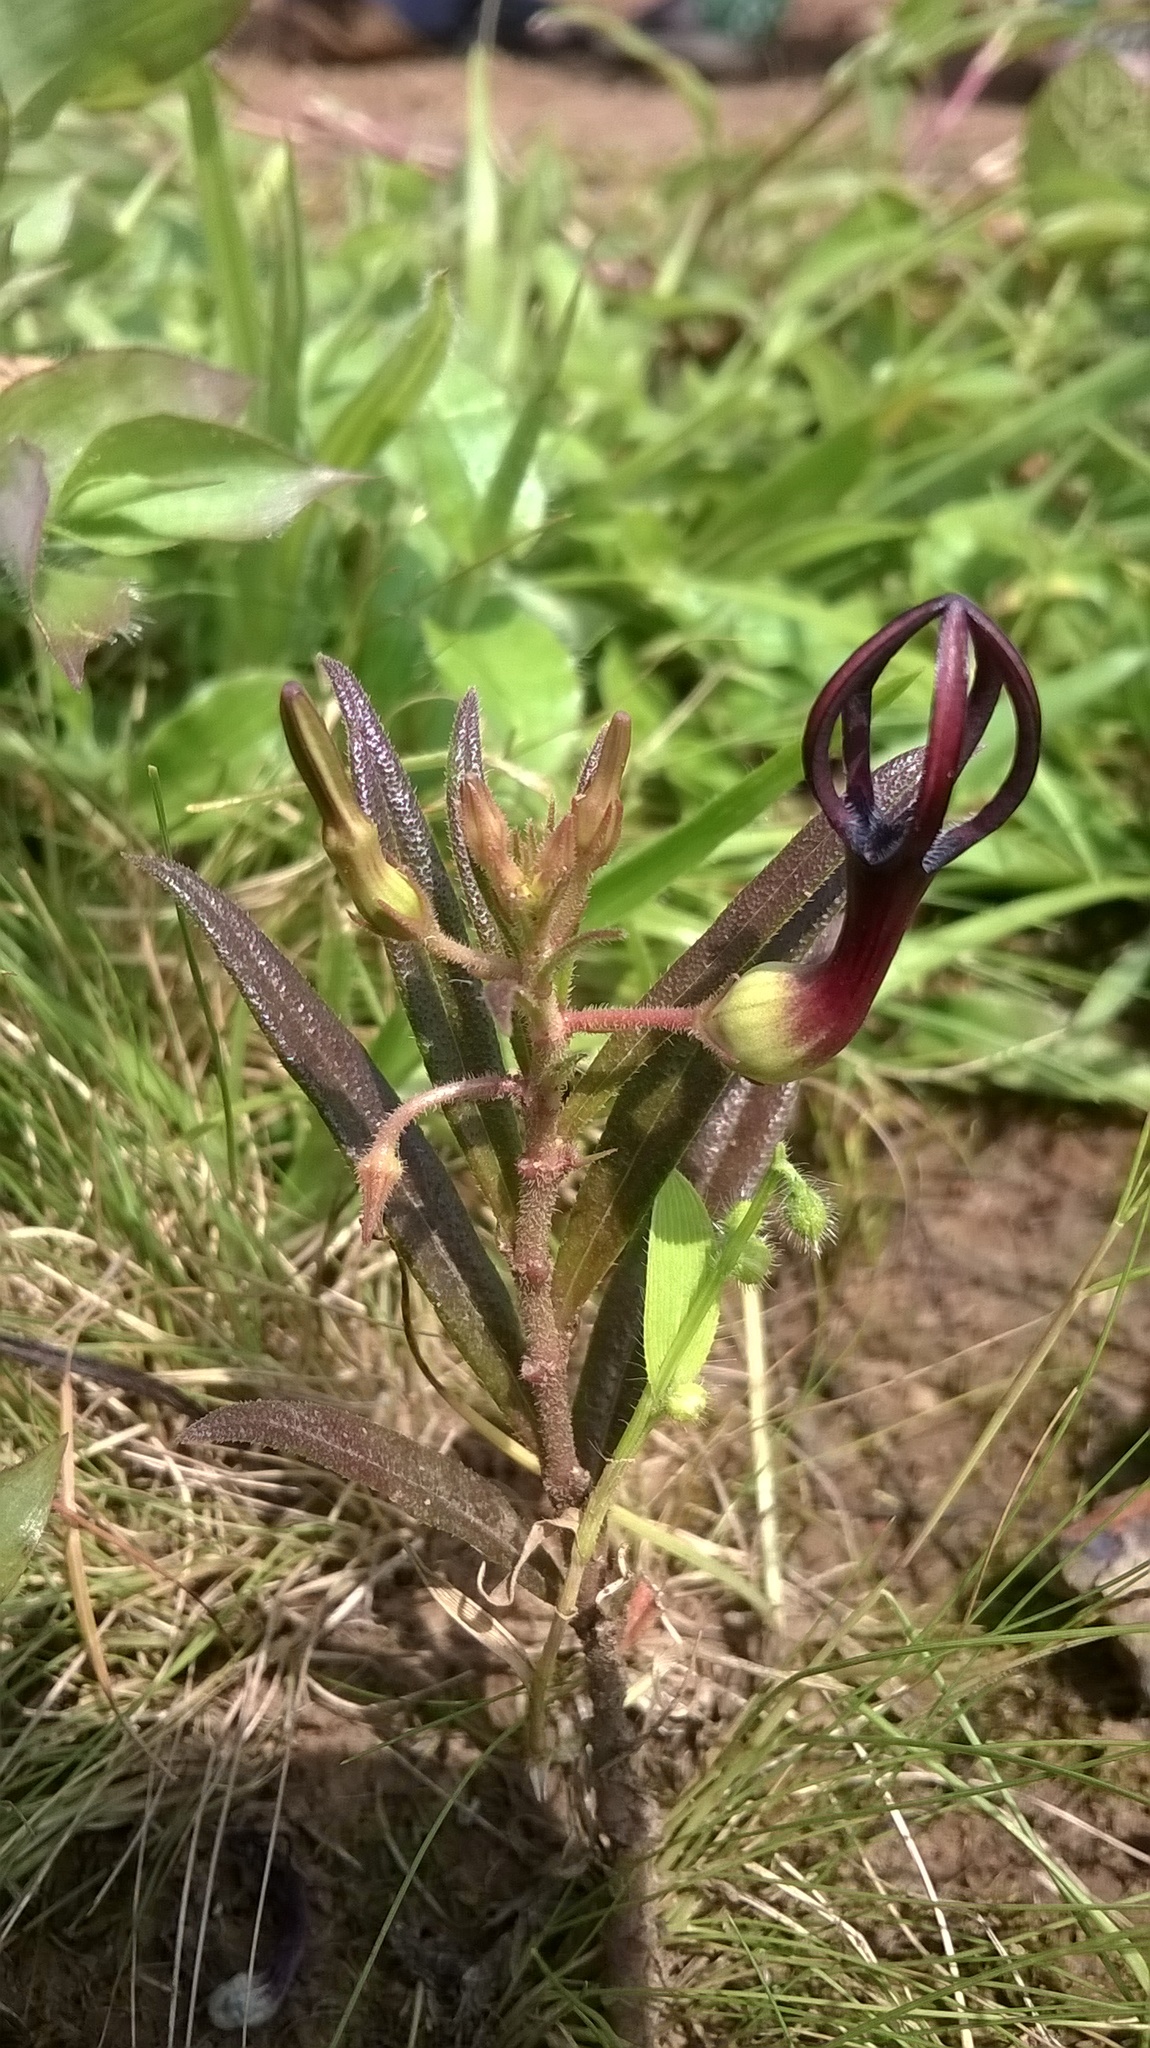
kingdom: Plantae
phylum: Tracheophyta
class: Magnoliopsida
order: Gentianales
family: Apocynaceae
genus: Ceropegia
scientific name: Ceropegia jainii
